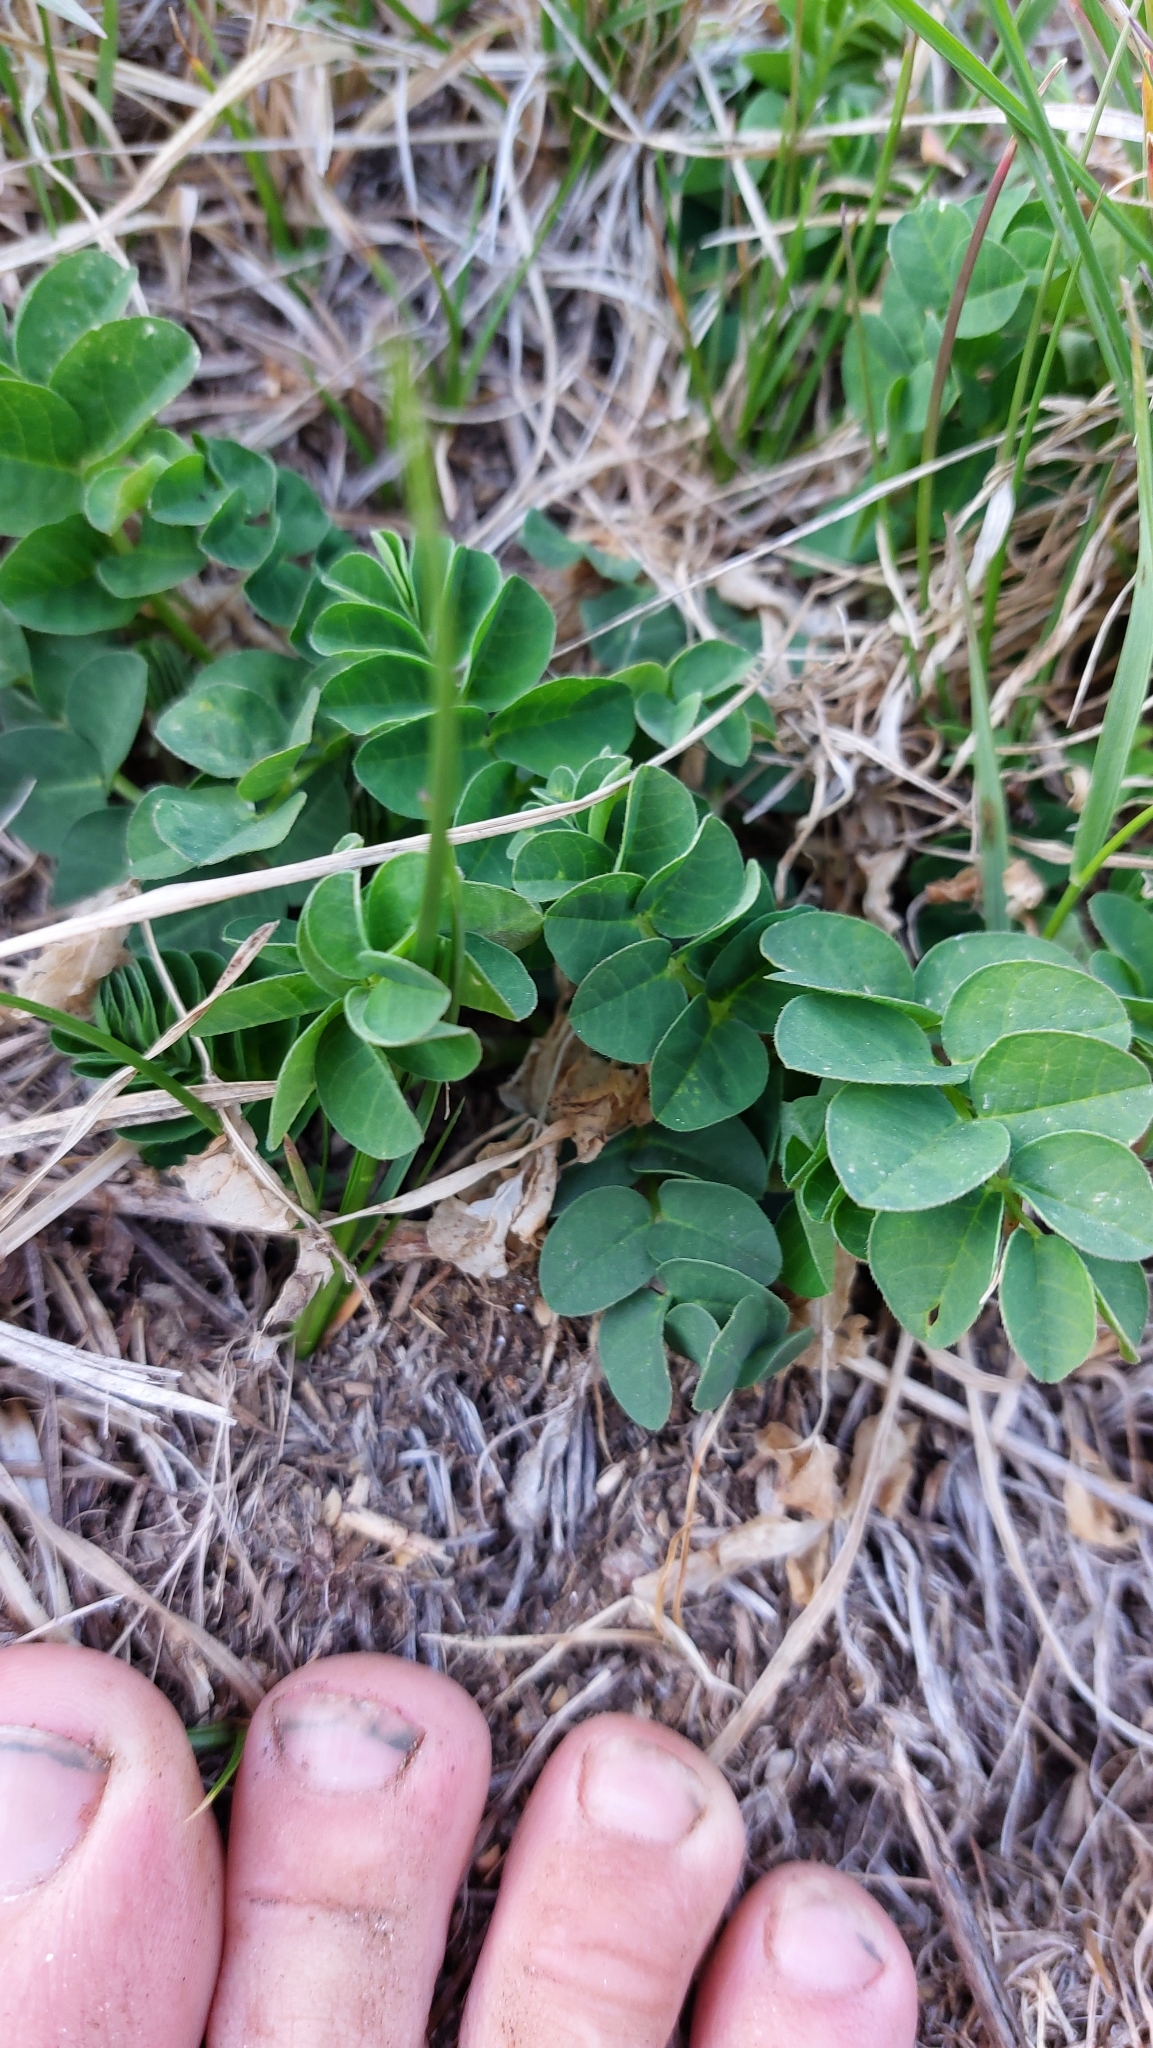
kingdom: Plantae
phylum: Tracheophyta
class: Magnoliopsida
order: Fabales
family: Fabaceae
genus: Astragalus
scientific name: Astragalus glycyphyllos
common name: Wild liquorice
